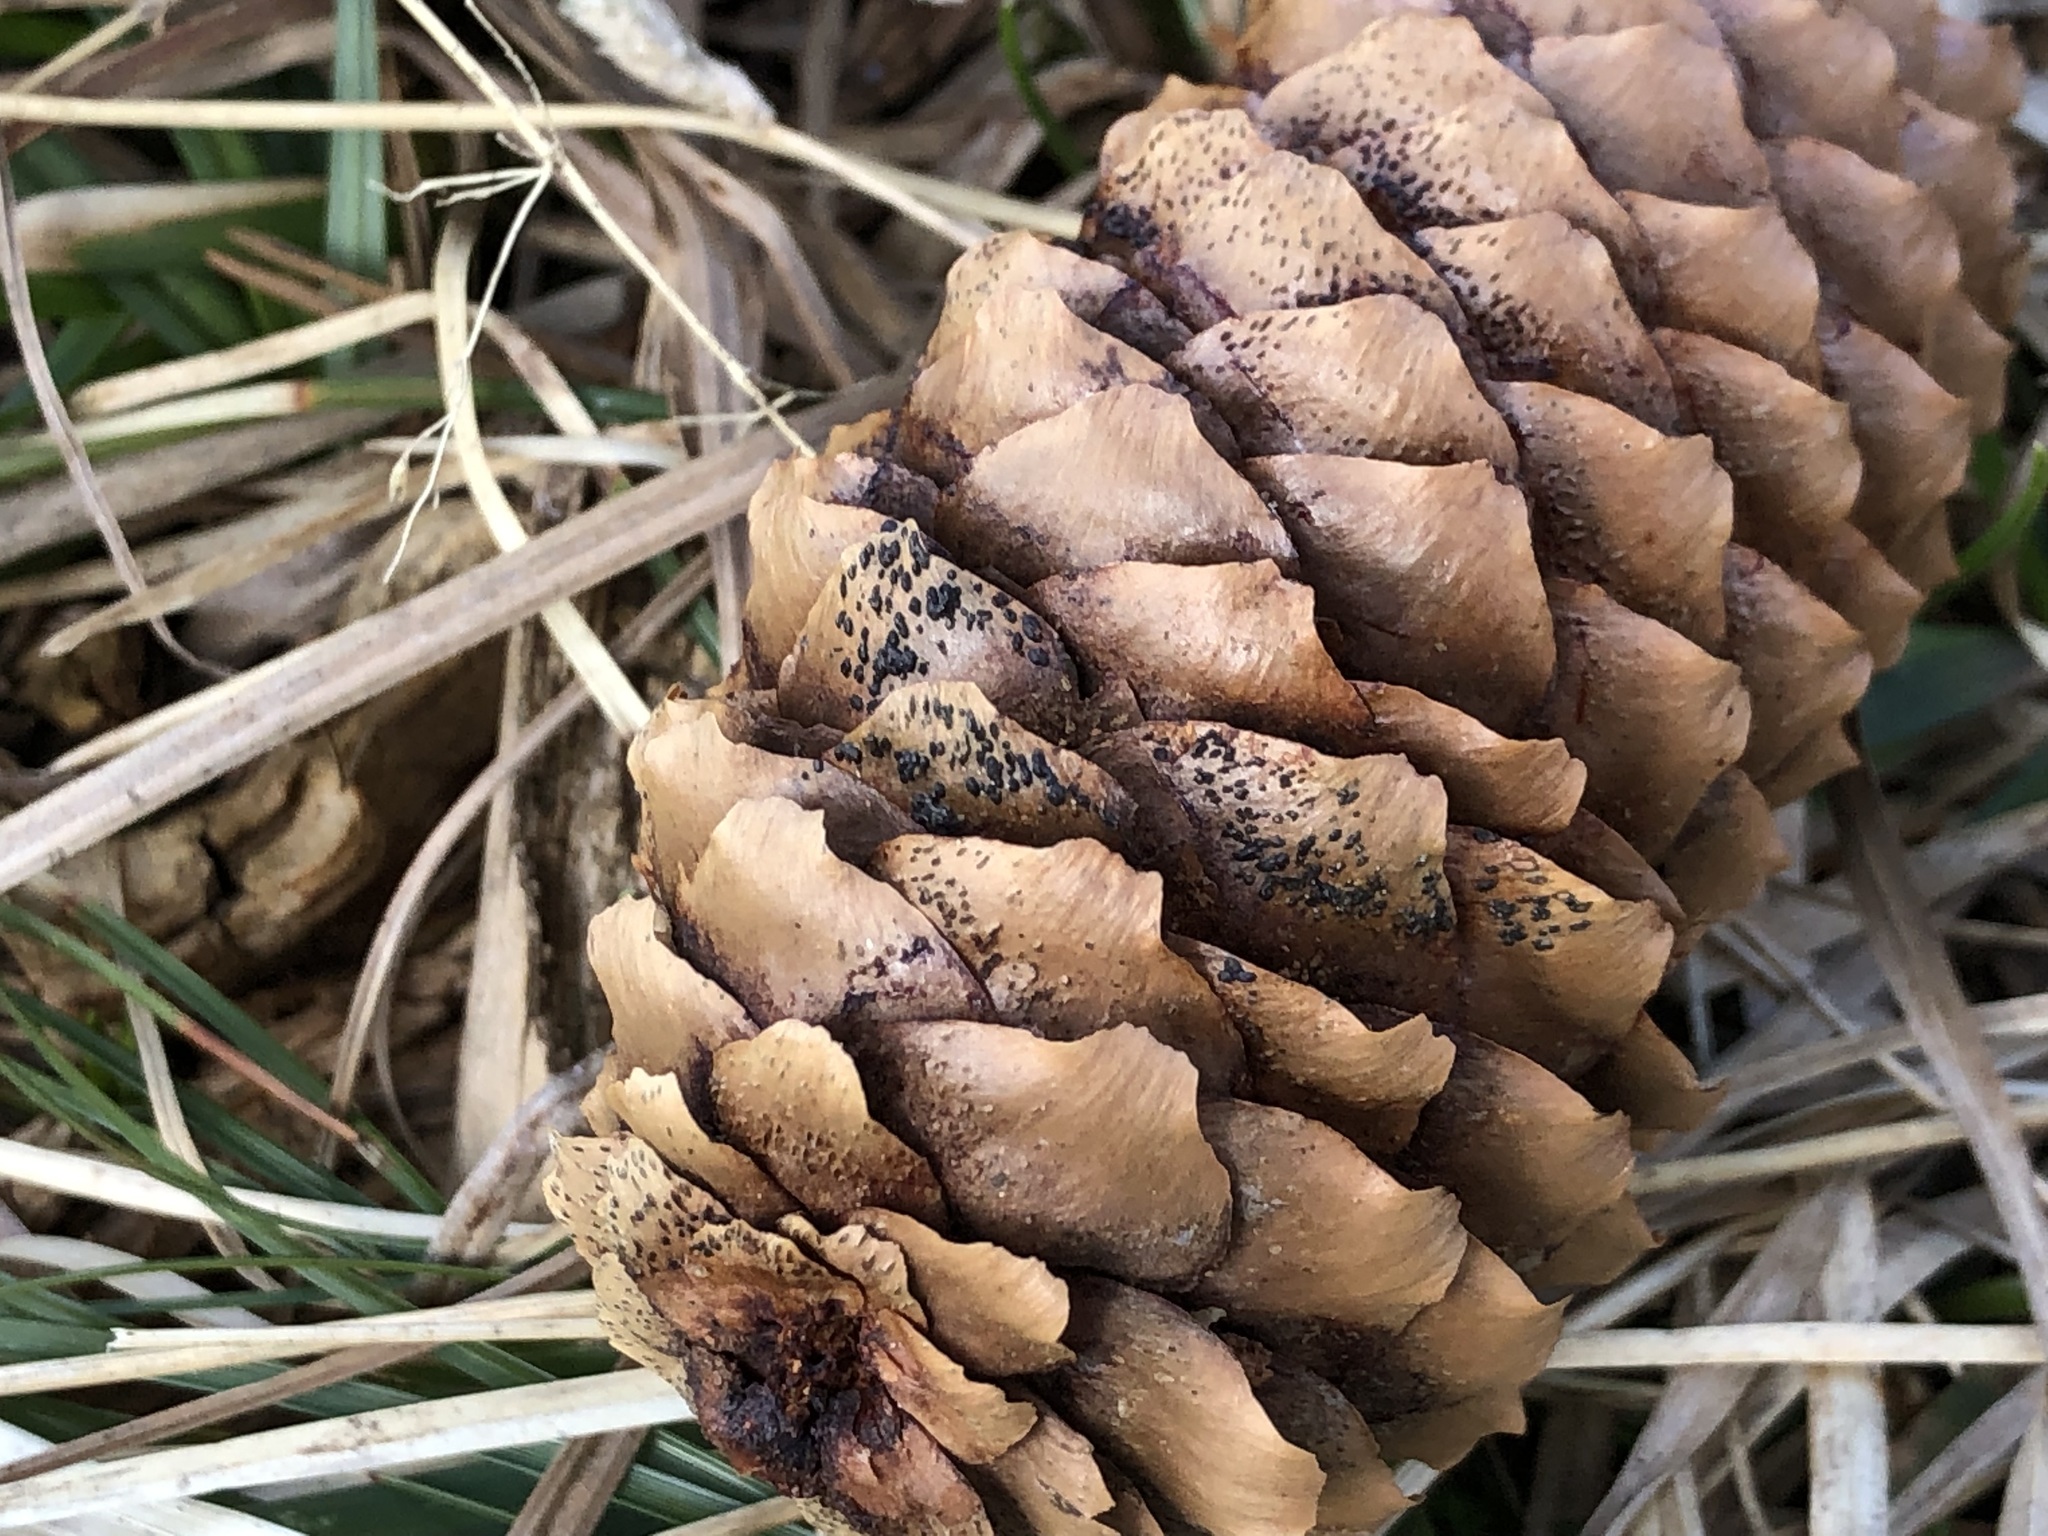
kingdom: Fungi
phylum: Ascomycota
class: Dothideomycetes
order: Pleosporales
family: Melanommataceae
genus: Phragmotrichum
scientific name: Phragmotrichum chailletii
